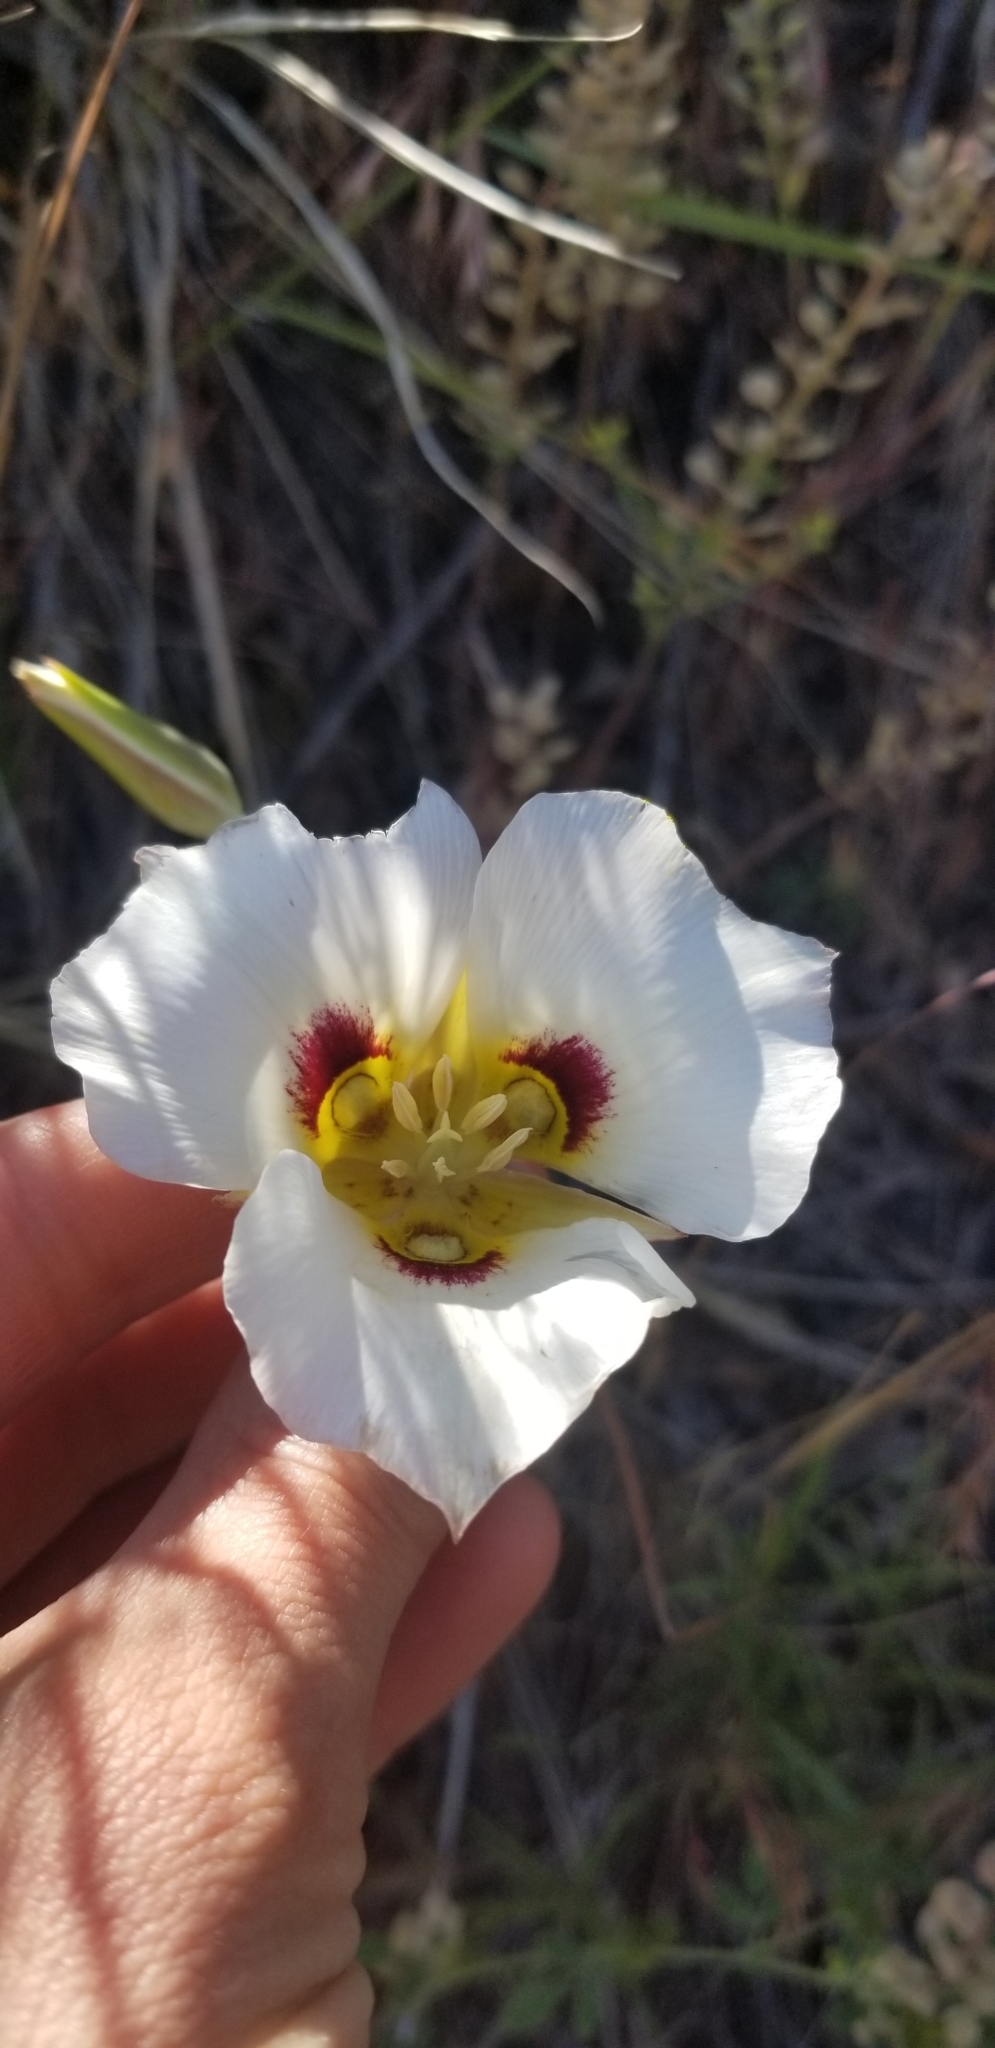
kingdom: Plantae
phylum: Tracheophyta
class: Liliopsida
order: Liliales
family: Liliaceae
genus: Calochortus
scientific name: Calochortus nuttallii
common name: Sego-lily
